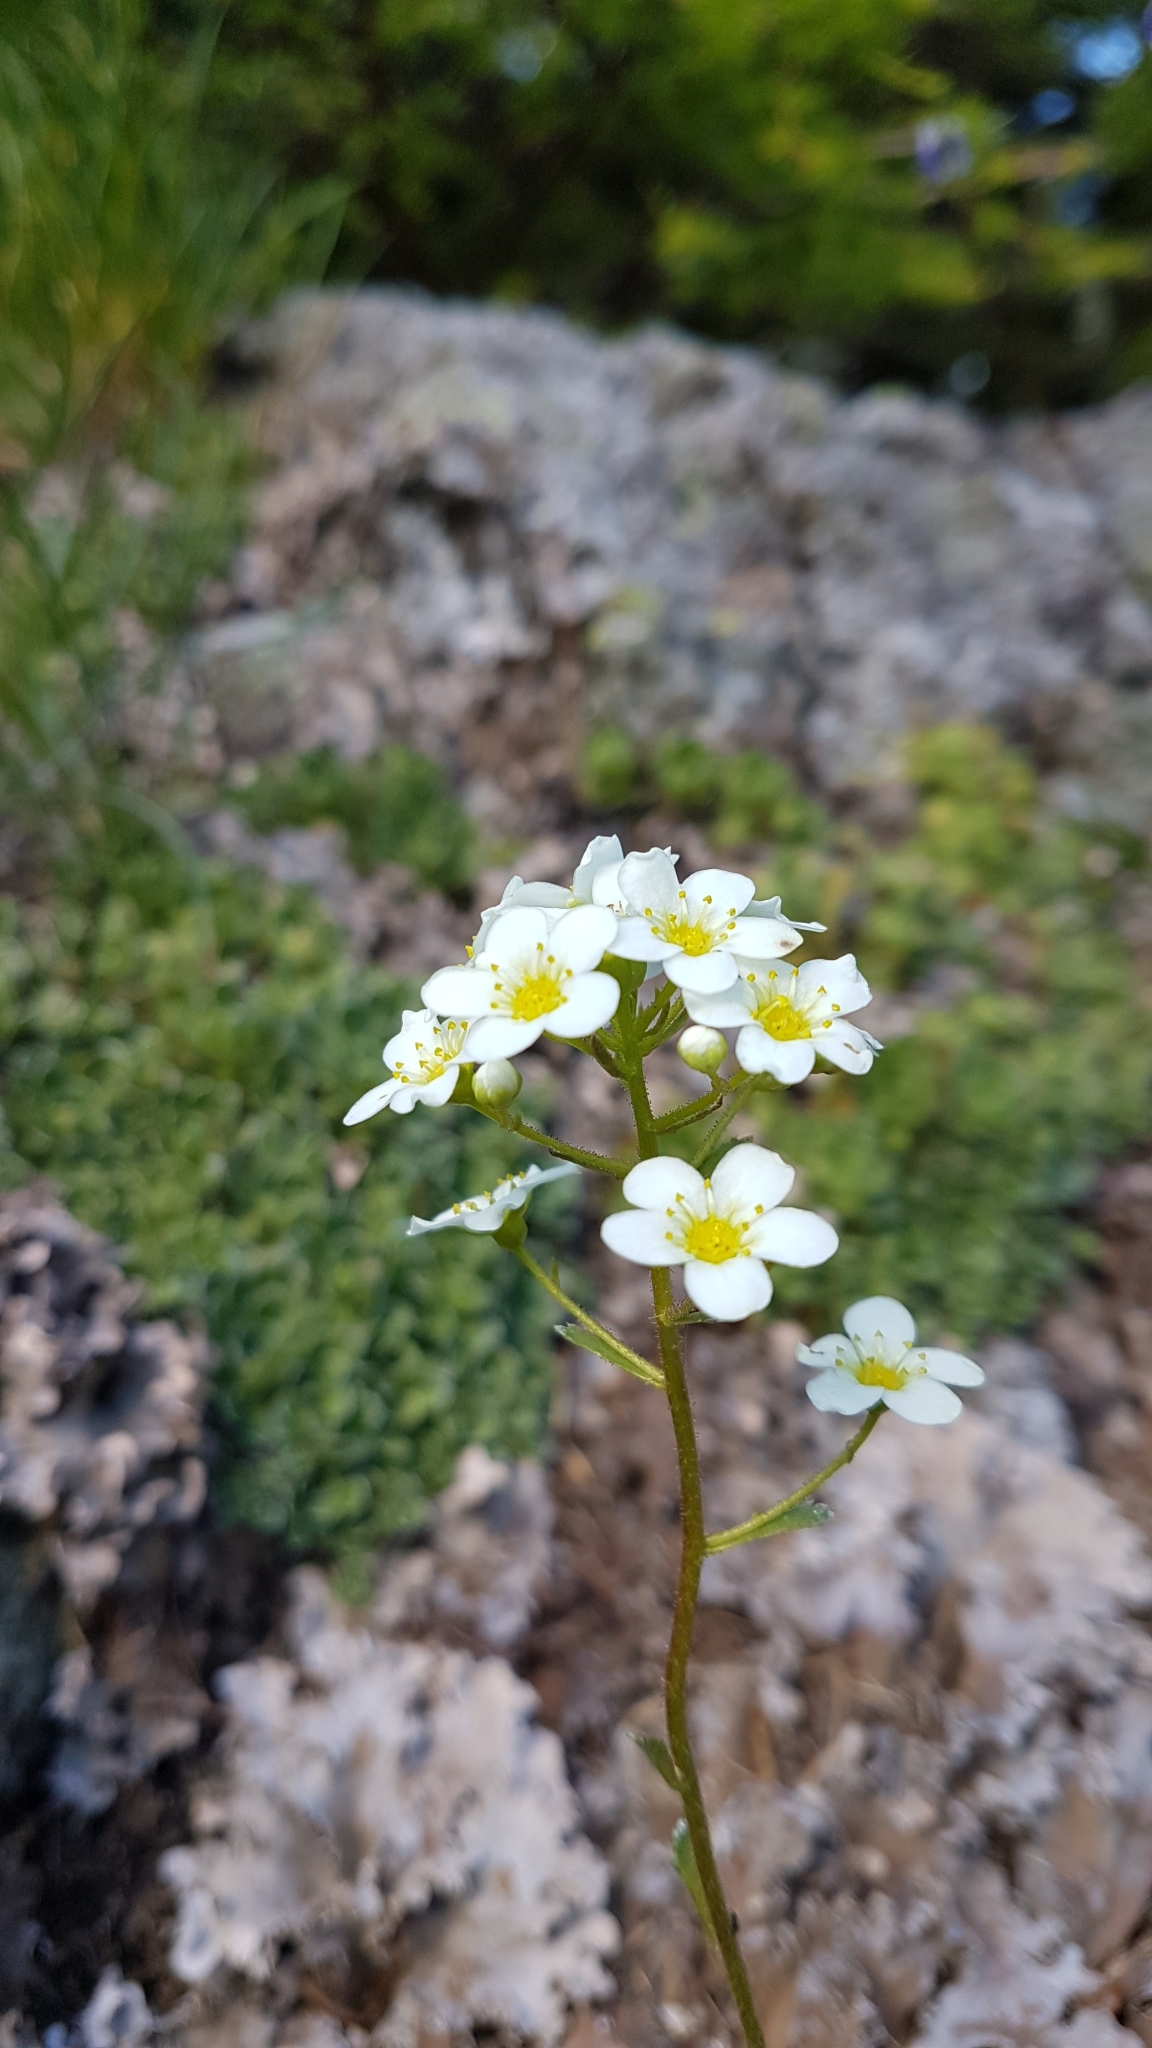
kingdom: Plantae
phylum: Tracheophyta
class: Magnoliopsida
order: Saxifragales
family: Saxifragaceae
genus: Saxifraga
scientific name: Saxifraga paniculata
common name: Livelong saxifrage
